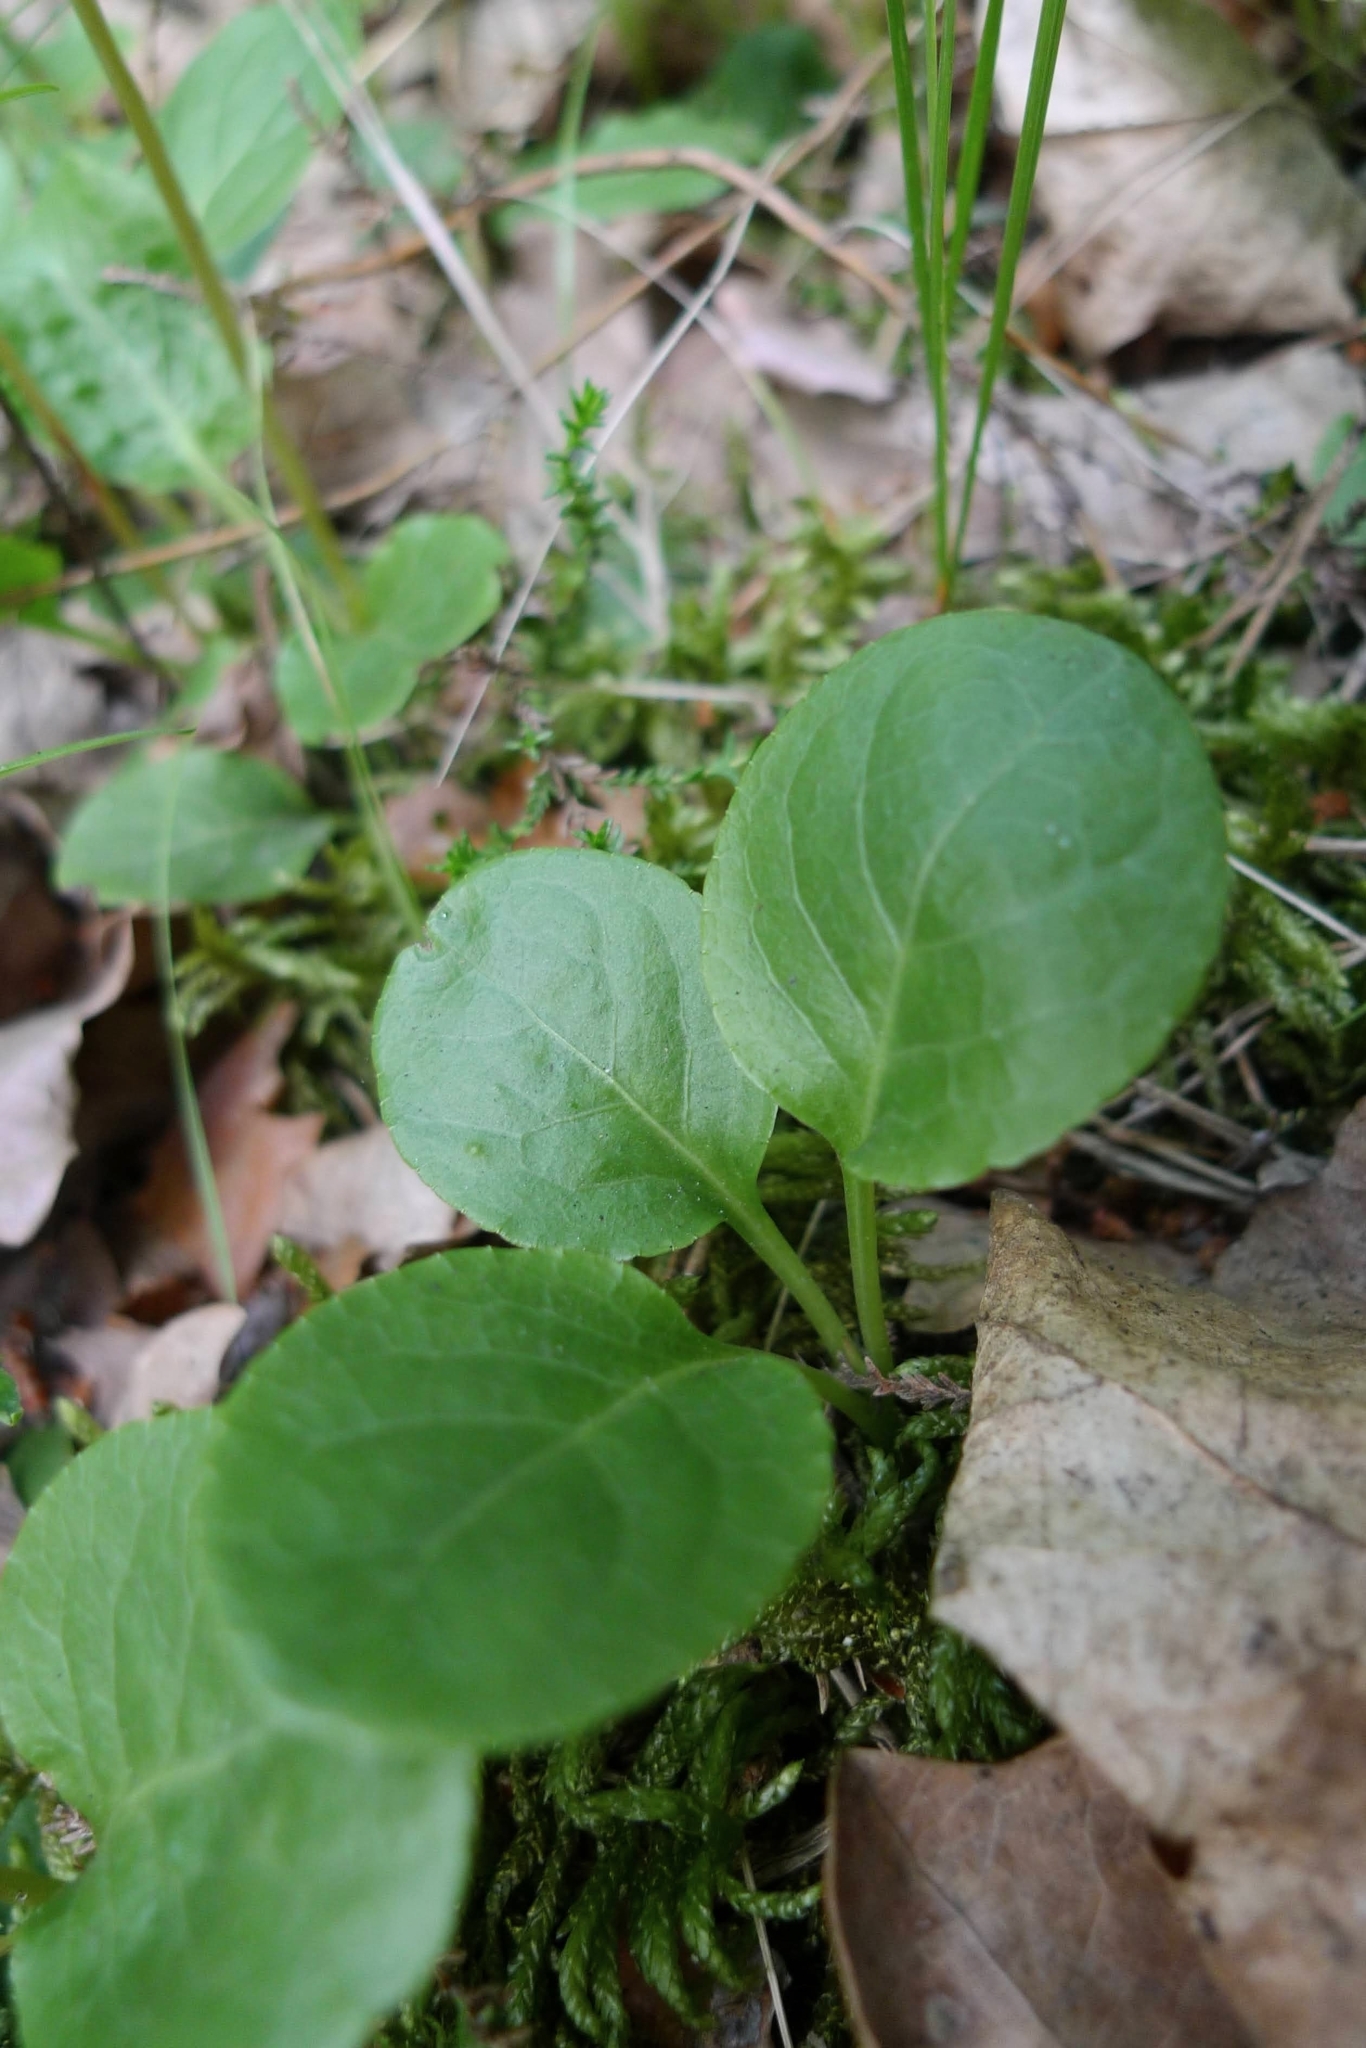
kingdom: Plantae
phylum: Tracheophyta
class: Magnoliopsida
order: Ericales
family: Ericaceae
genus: Pyrola
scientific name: Pyrola minor
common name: Common wintergreen
